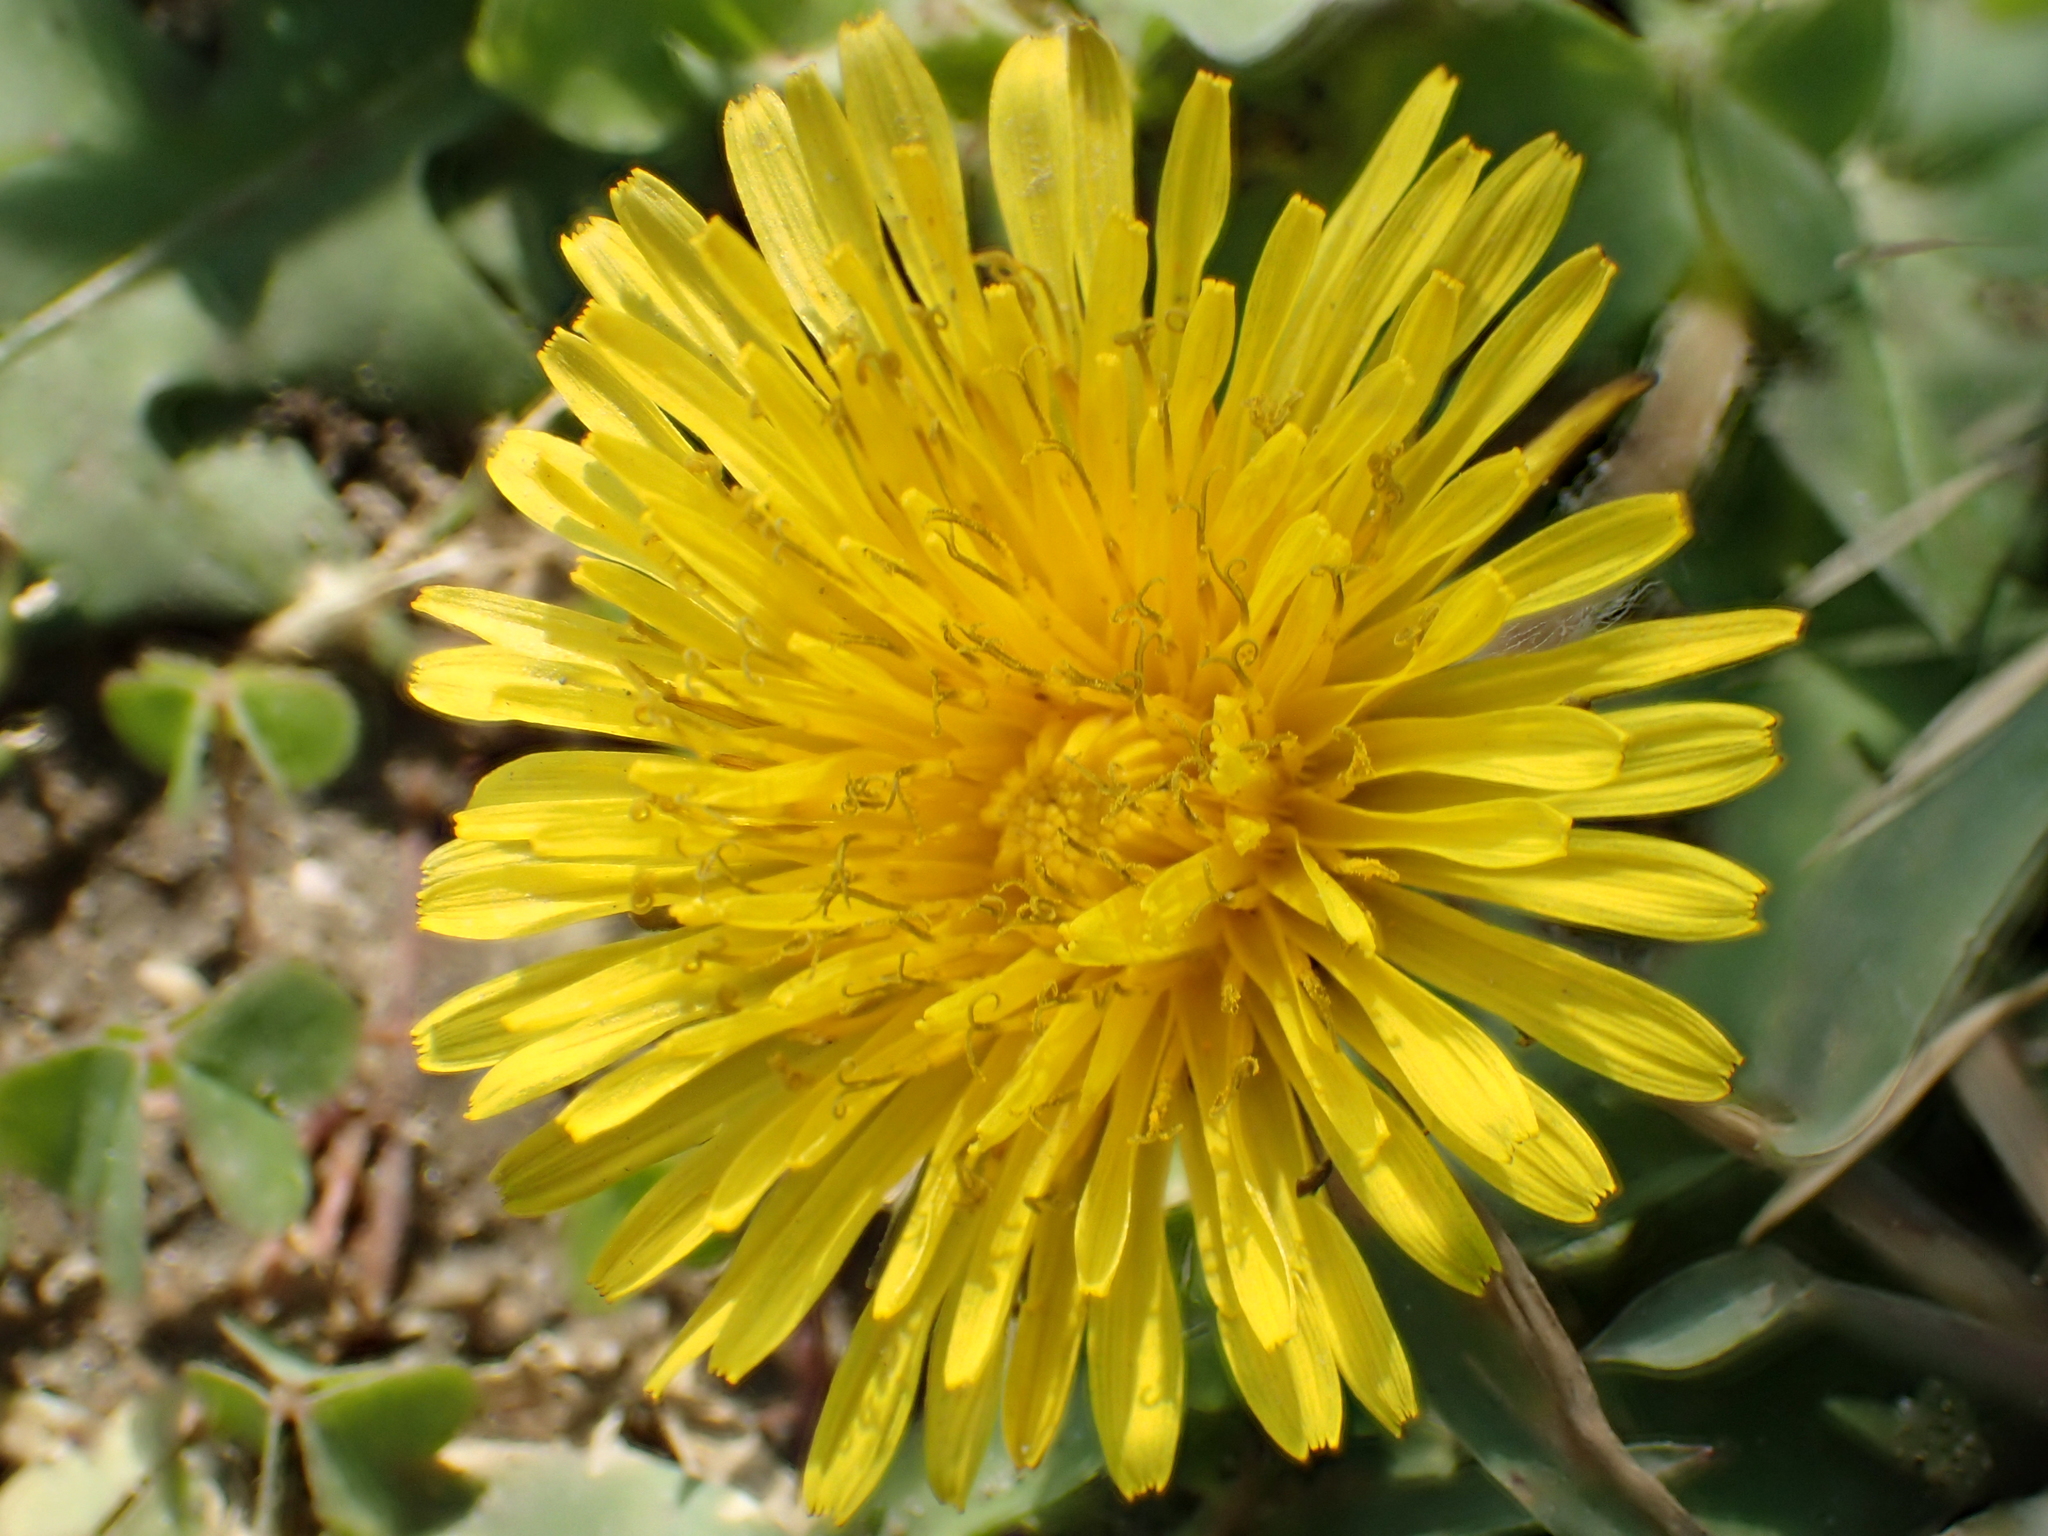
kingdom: Plantae
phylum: Tracheophyta
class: Magnoliopsida
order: Asterales
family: Asteraceae
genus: Taraxacum
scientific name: Taraxacum officinale
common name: Common dandelion
